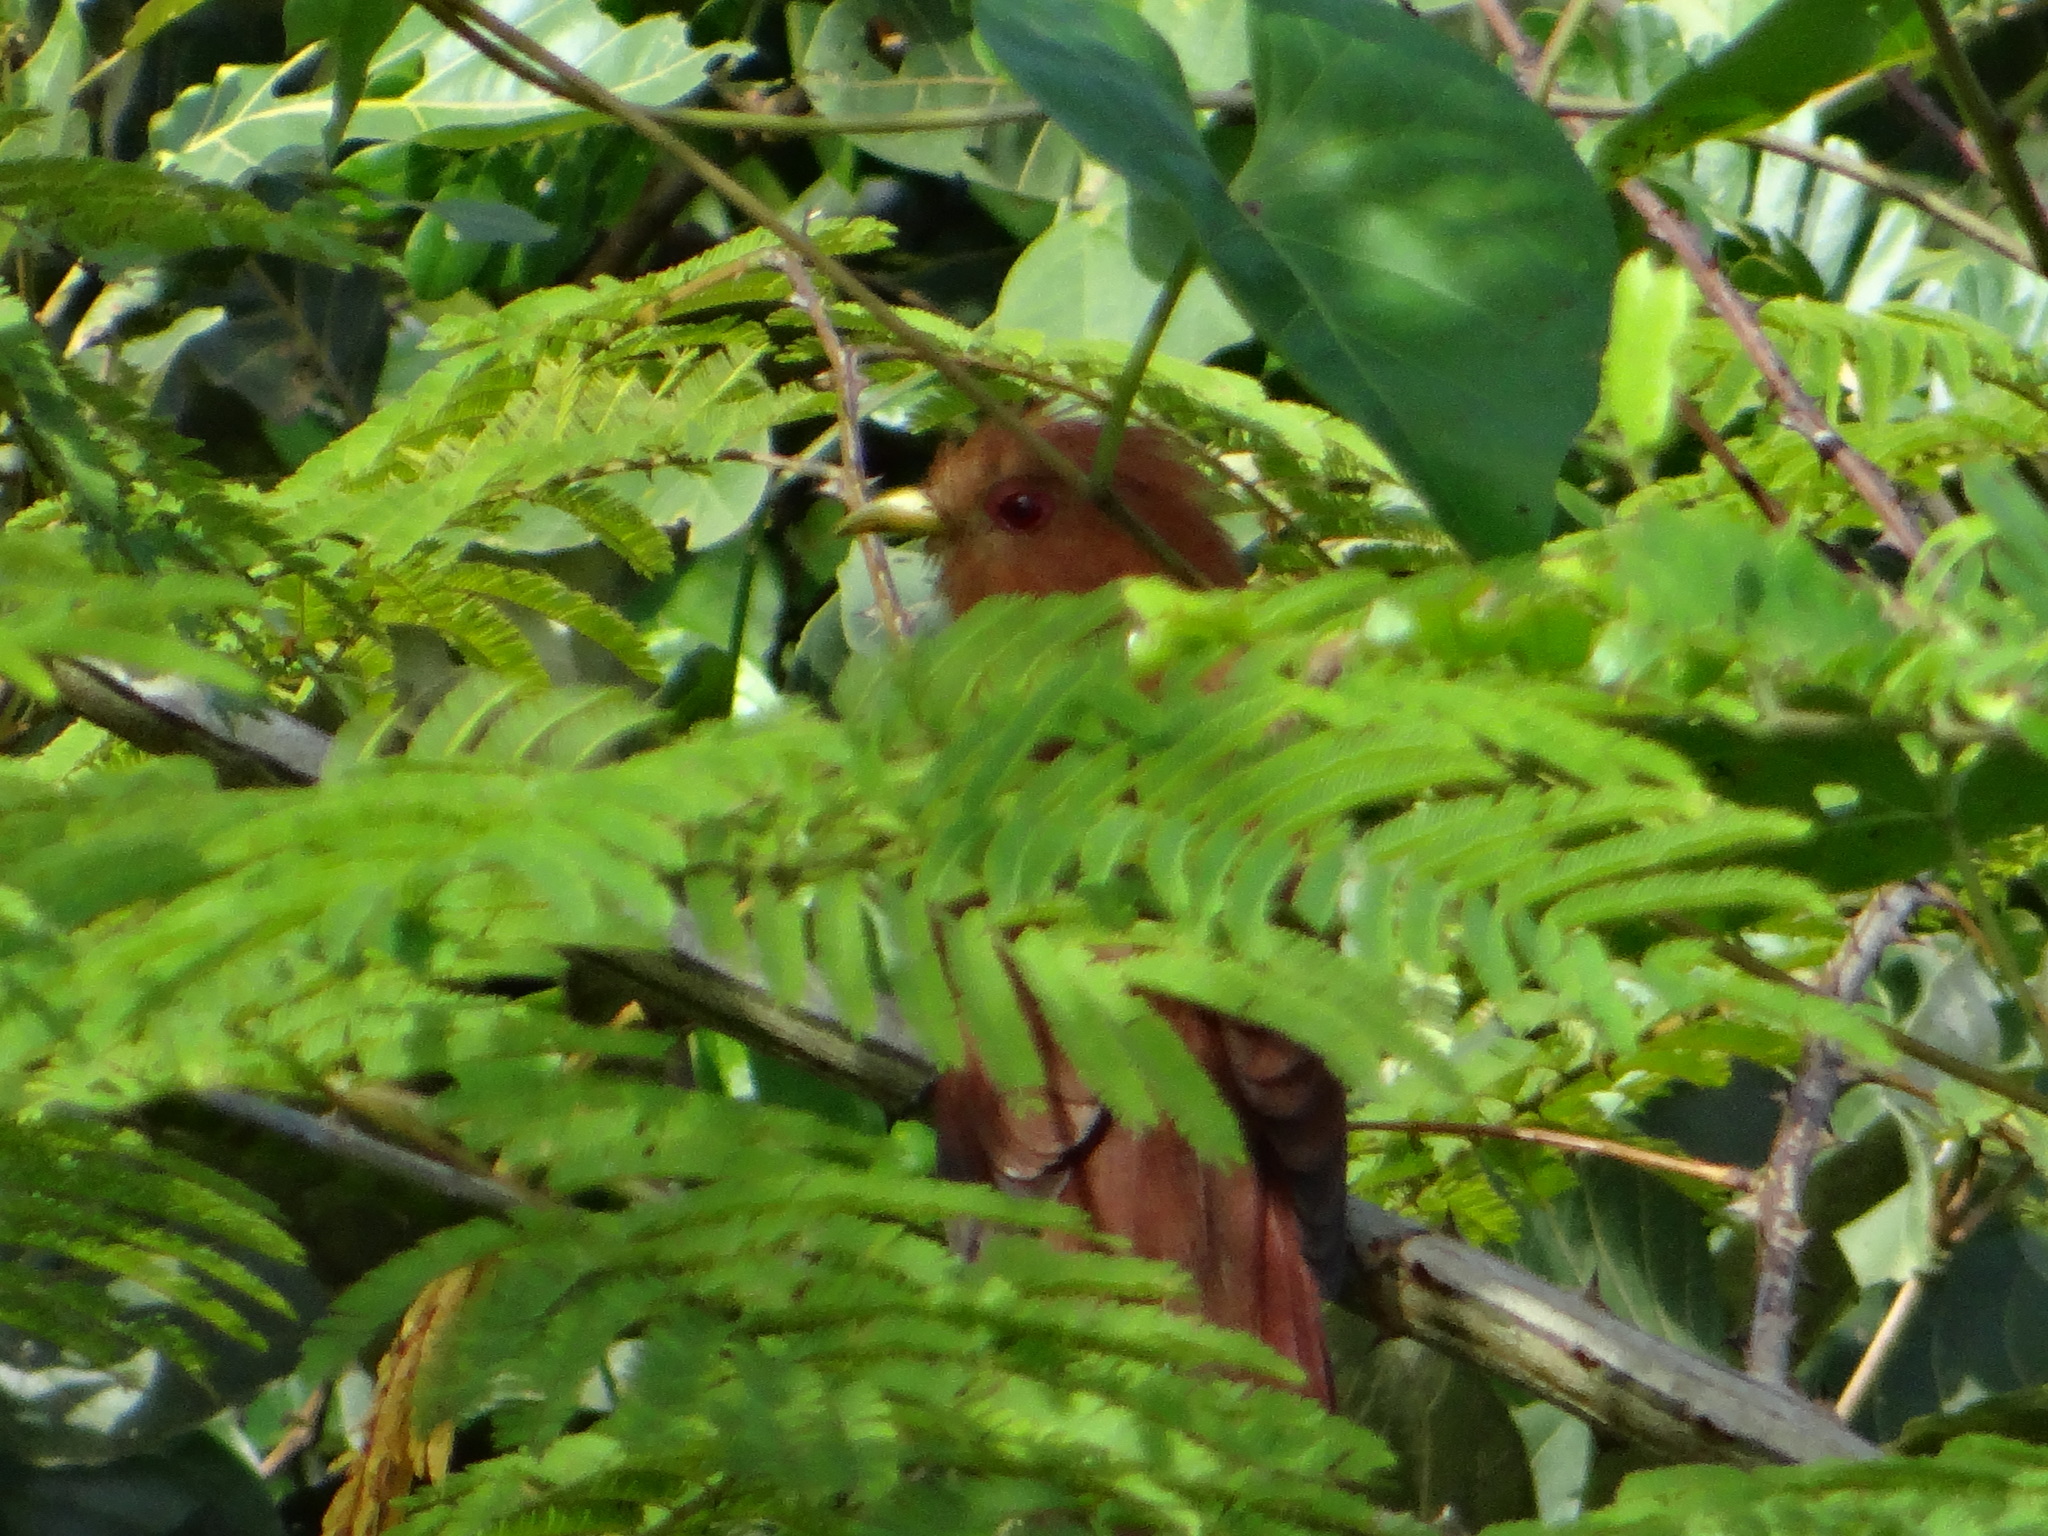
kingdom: Animalia
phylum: Chordata
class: Aves
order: Cuculiformes
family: Cuculidae
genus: Piaya
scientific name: Piaya minuta
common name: Little cuckoo
